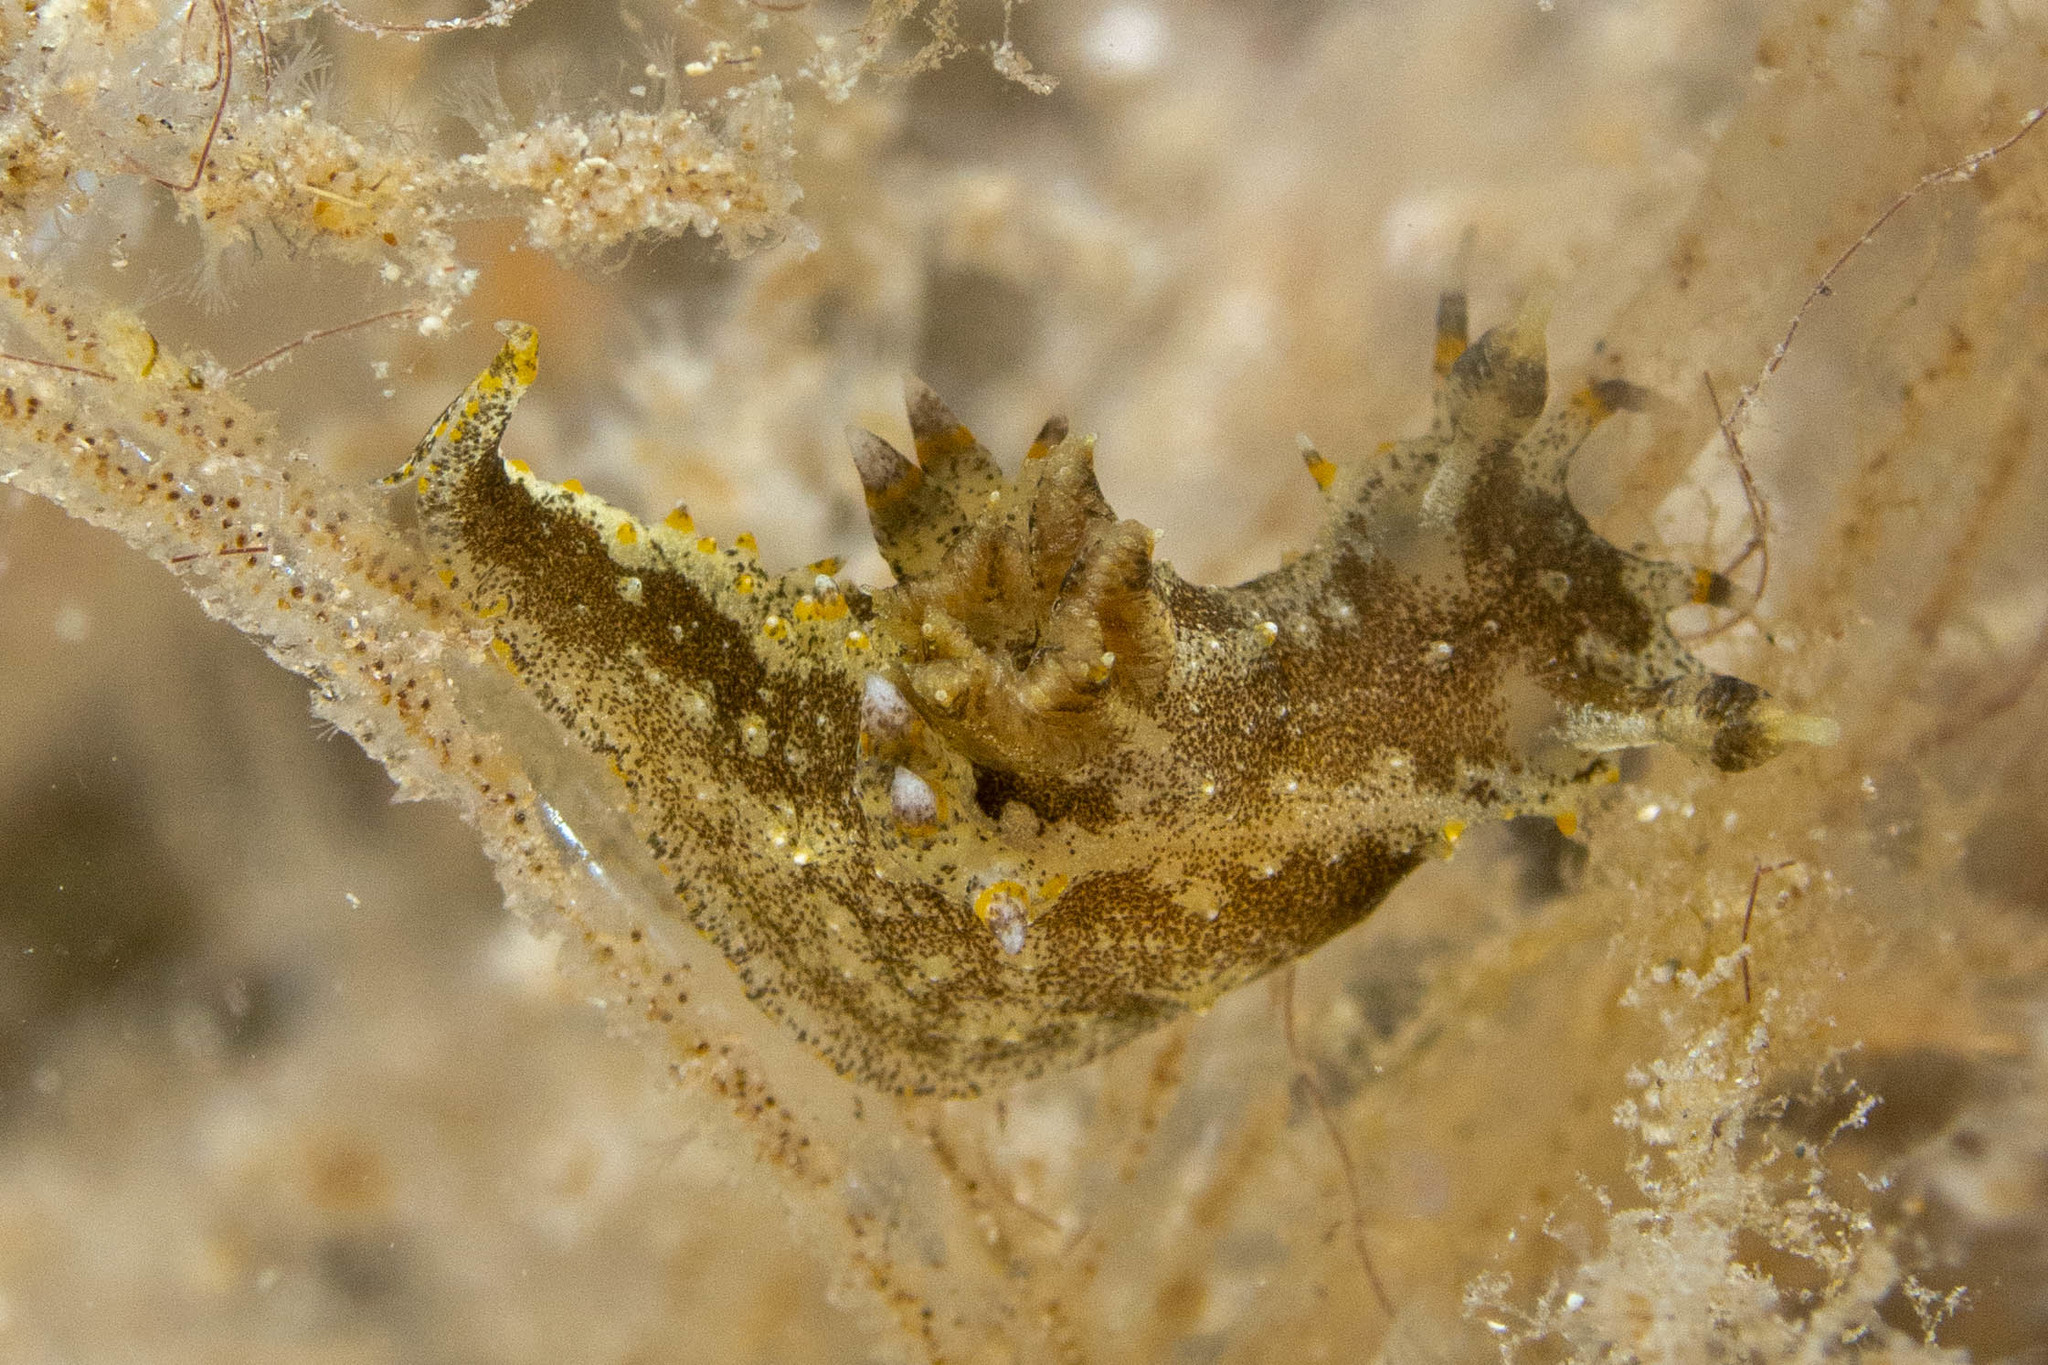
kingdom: Animalia
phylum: Mollusca
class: Gastropoda
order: Nudibranchia
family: Polyceridae
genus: Polycera
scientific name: Polycera hedgpethi
